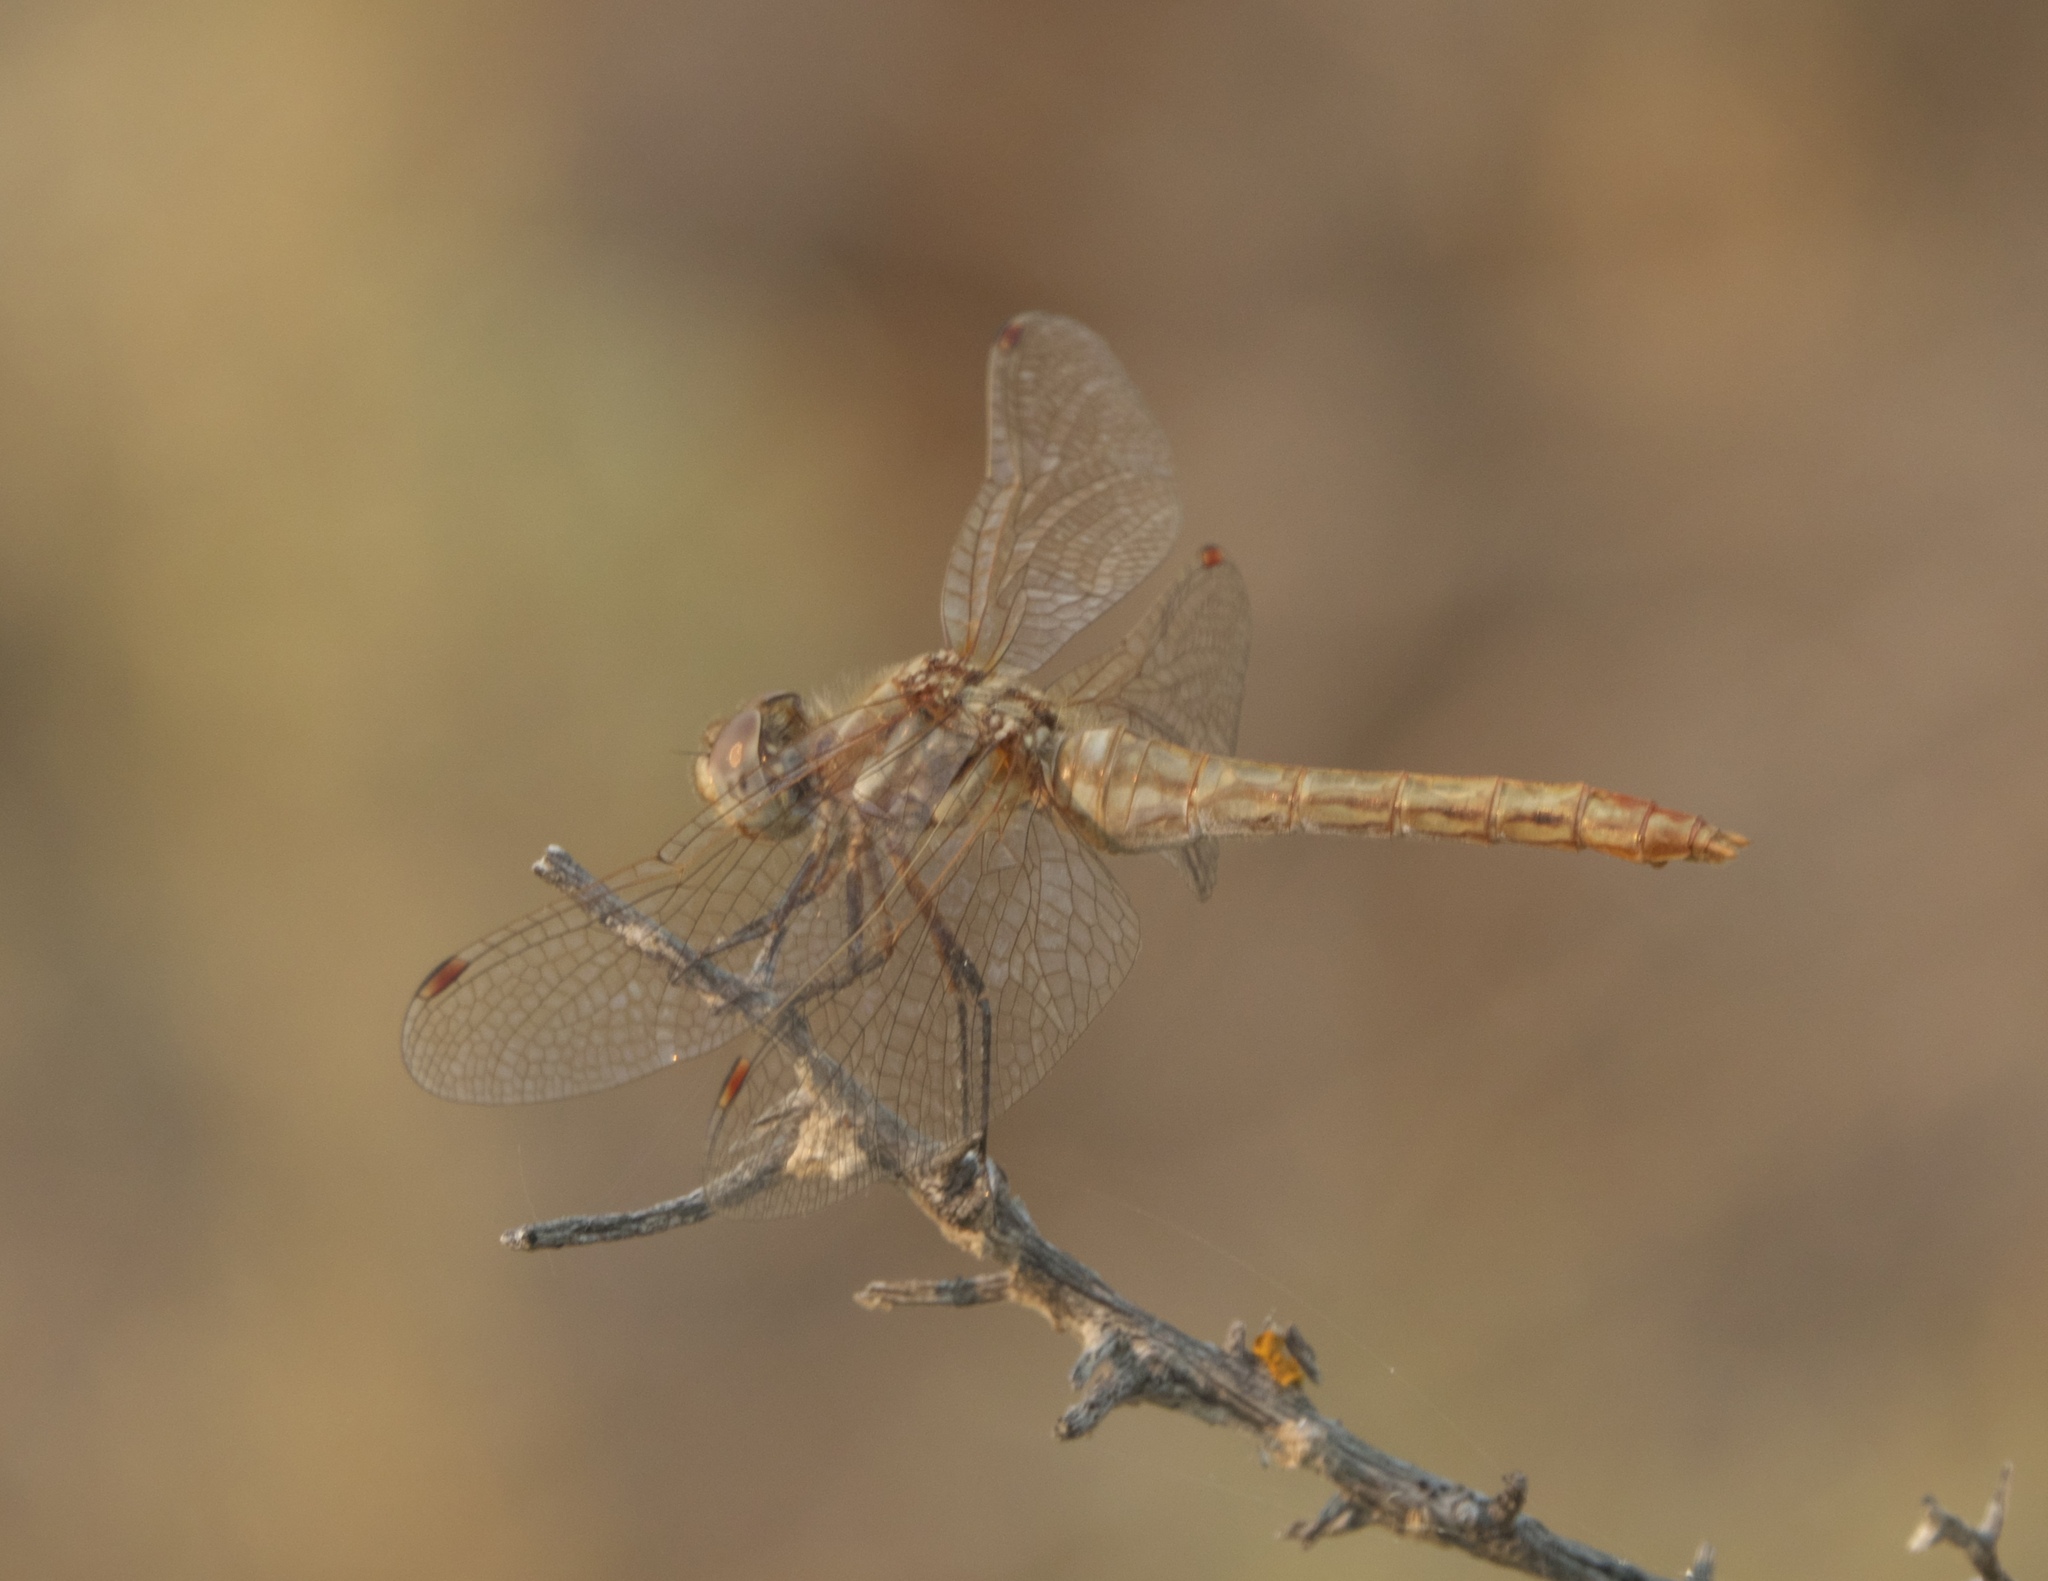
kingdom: Animalia
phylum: Arthropoda
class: Insecta
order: Odonata
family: Libellulidae
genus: Sympetrum
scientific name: Sympetrum pallipes
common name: Striped meadowhawk
